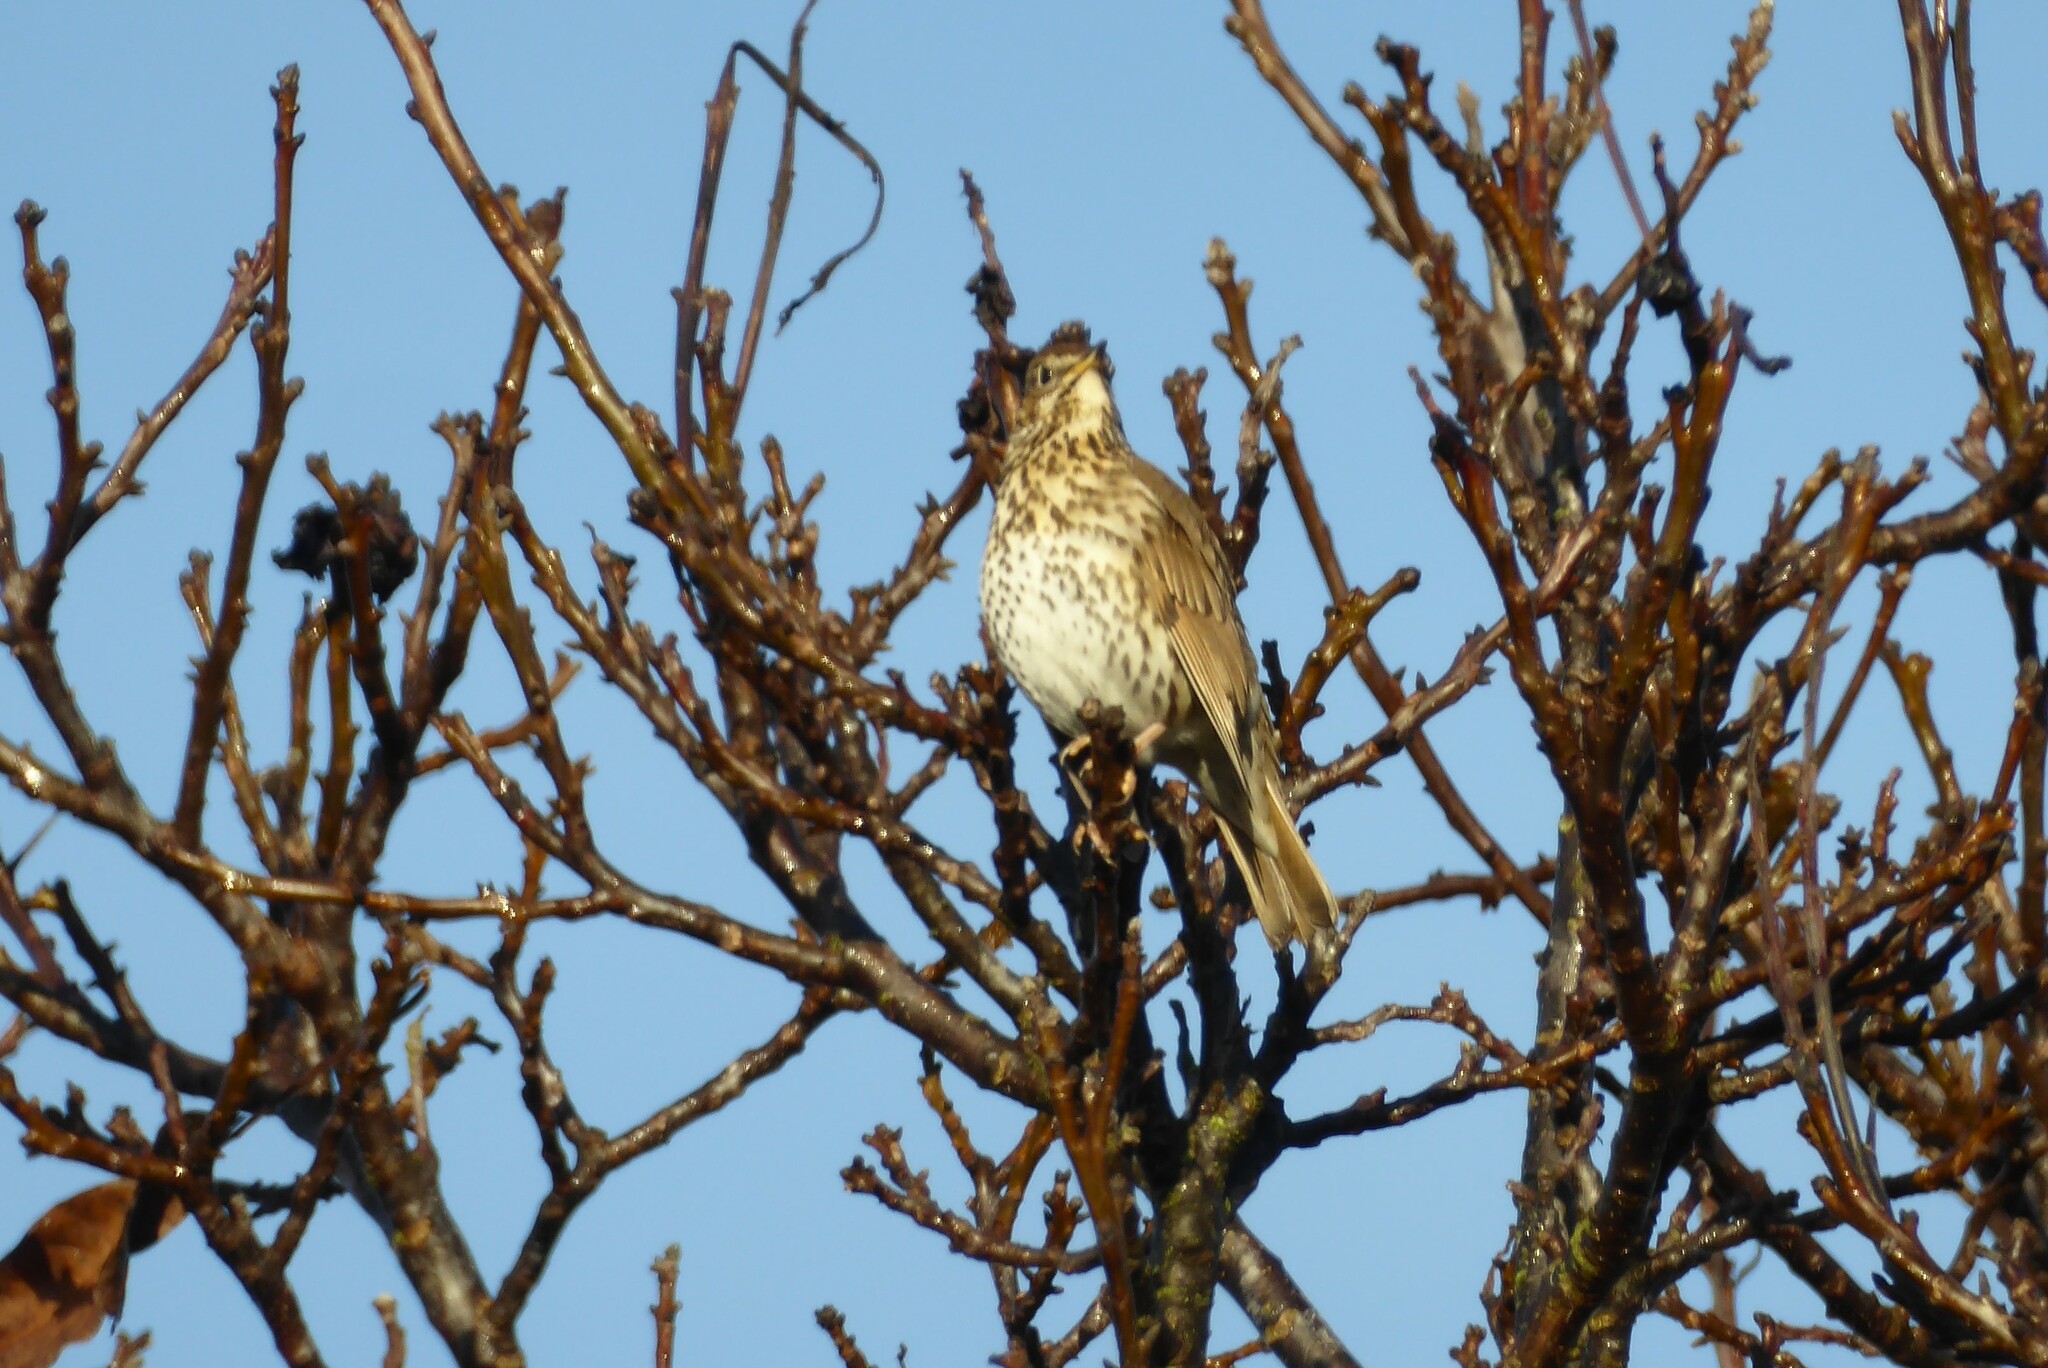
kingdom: Animalia
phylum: Chordata
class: Aves
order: Passeriformes
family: Turdidae
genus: Turdus
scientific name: Turdus philomelos
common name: Song thrush
